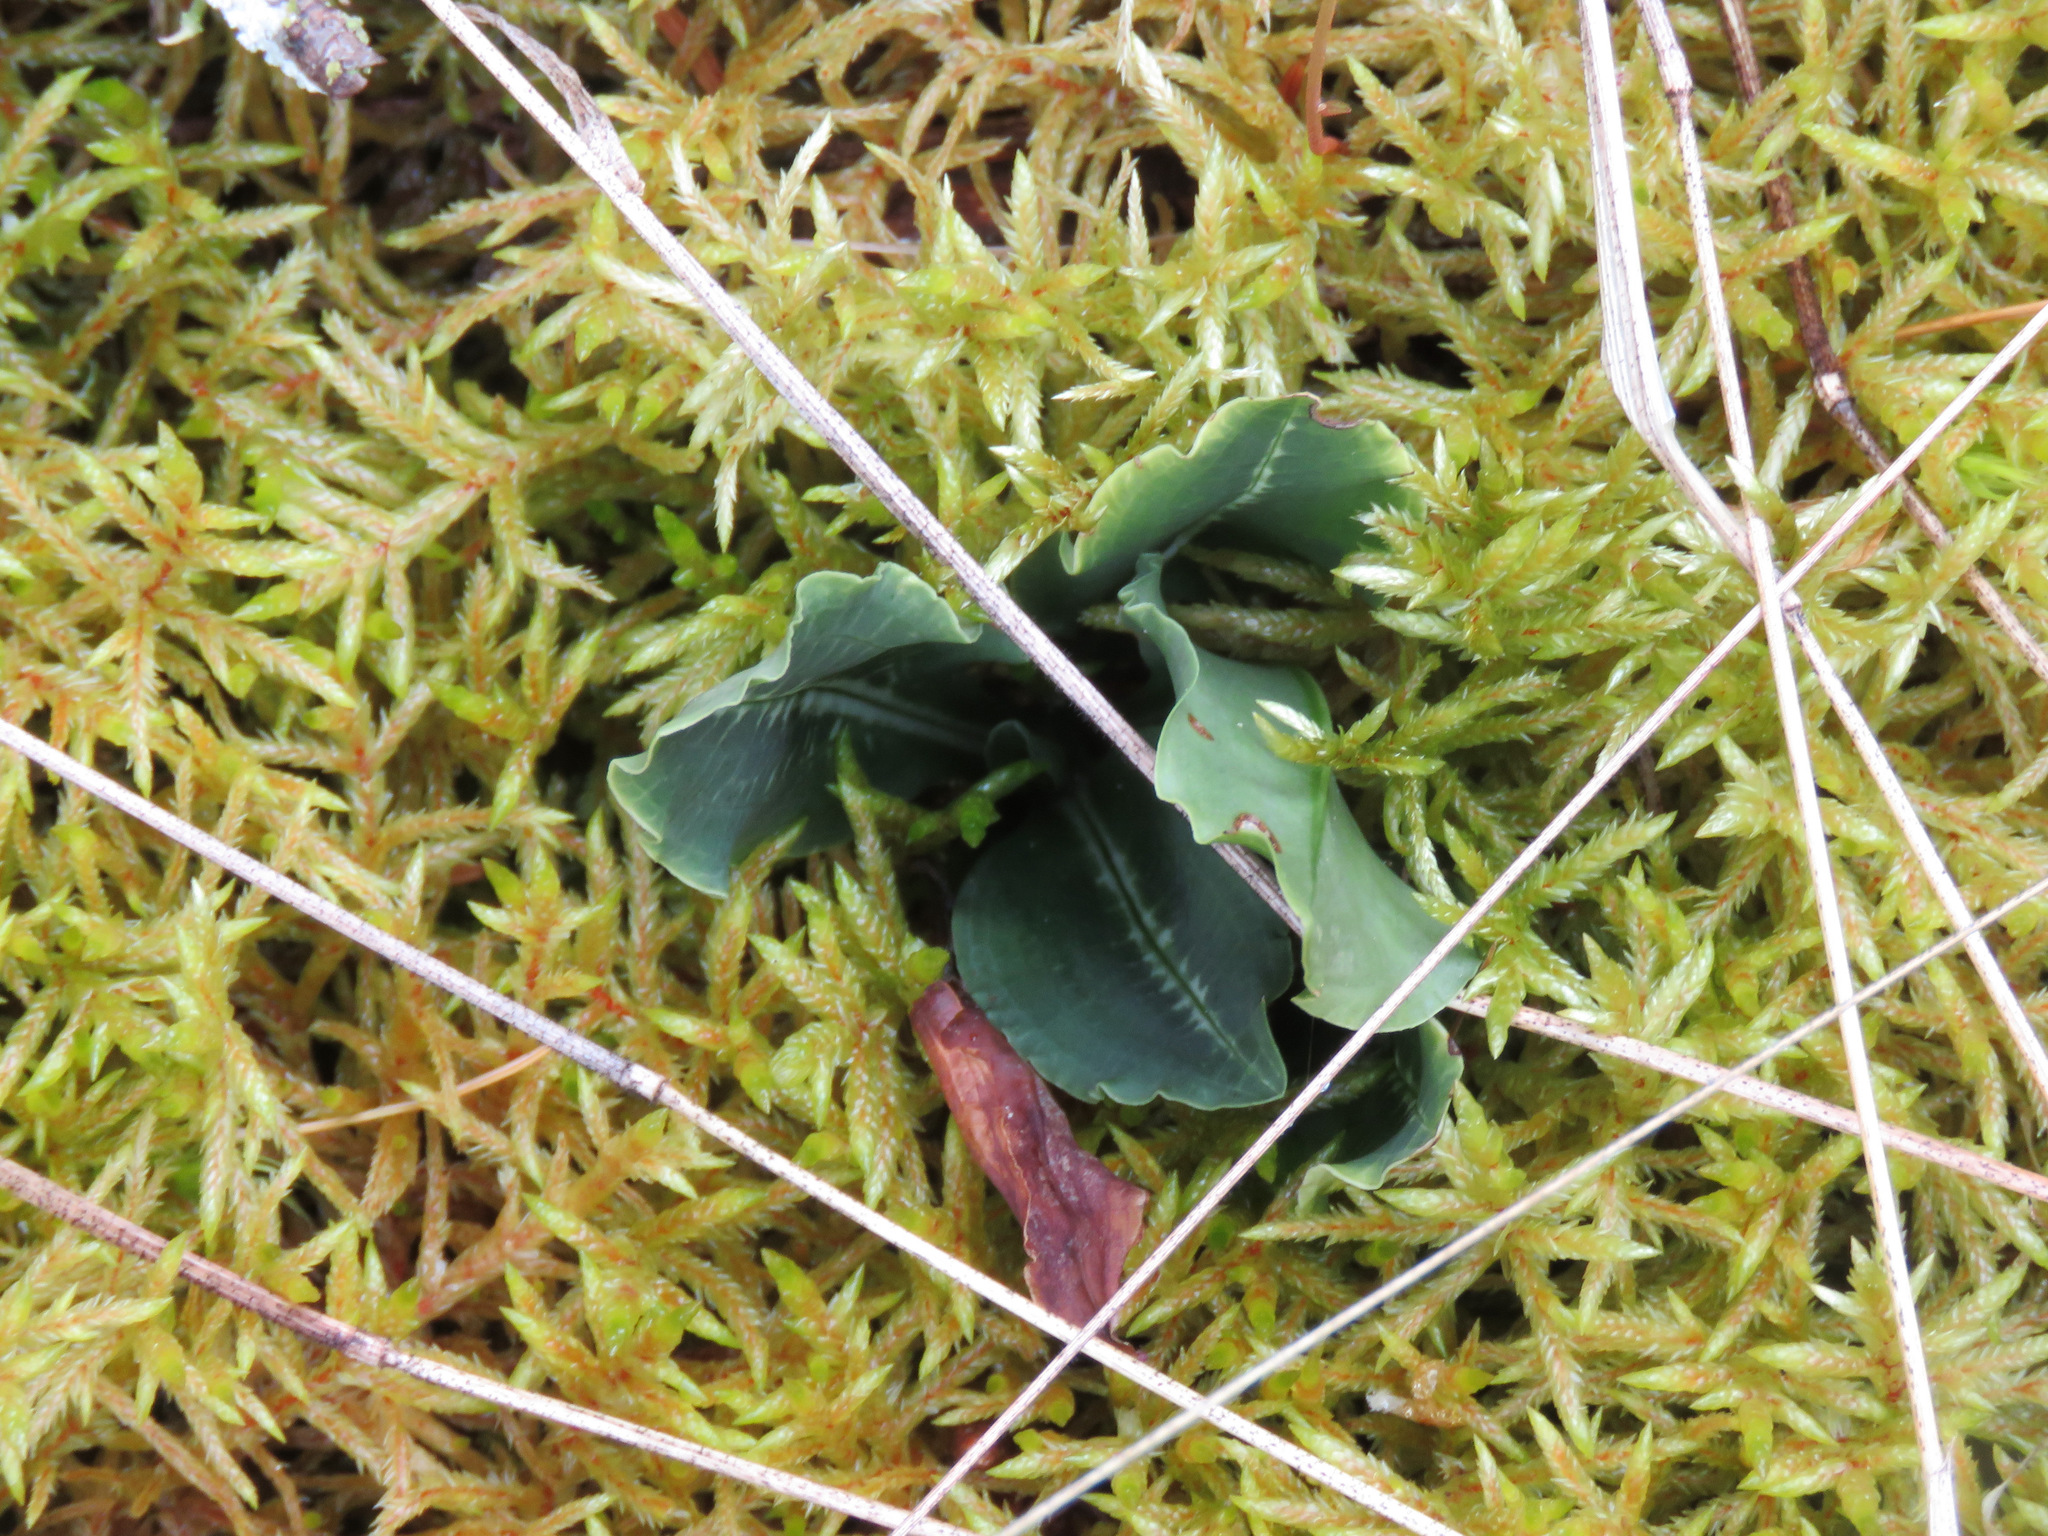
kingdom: Plantae
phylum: Tracheophyta
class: Liliopsida
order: Asparagales
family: Orchidaceae
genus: Goodyera
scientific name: Goodyera oblongifolia
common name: Giant rattlesnake-plantain
